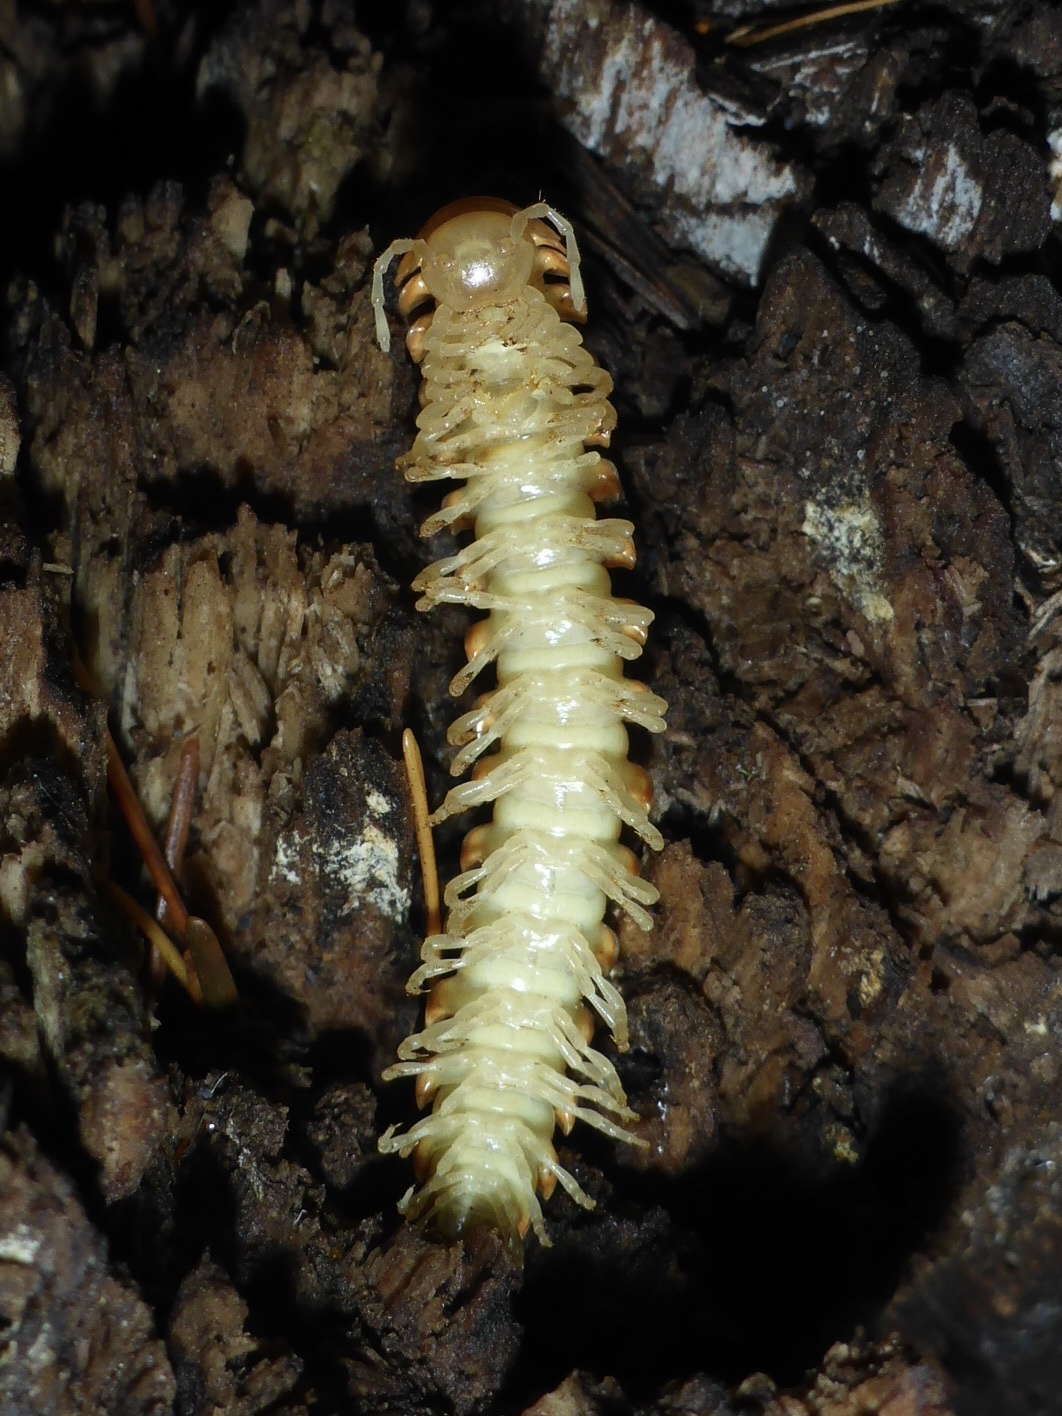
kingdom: Animalia
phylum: Arthropoda
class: Diplopoda
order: Polydesmida
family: Xystodesmidae
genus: Xystocheir
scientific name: Xystocheir dissecta
